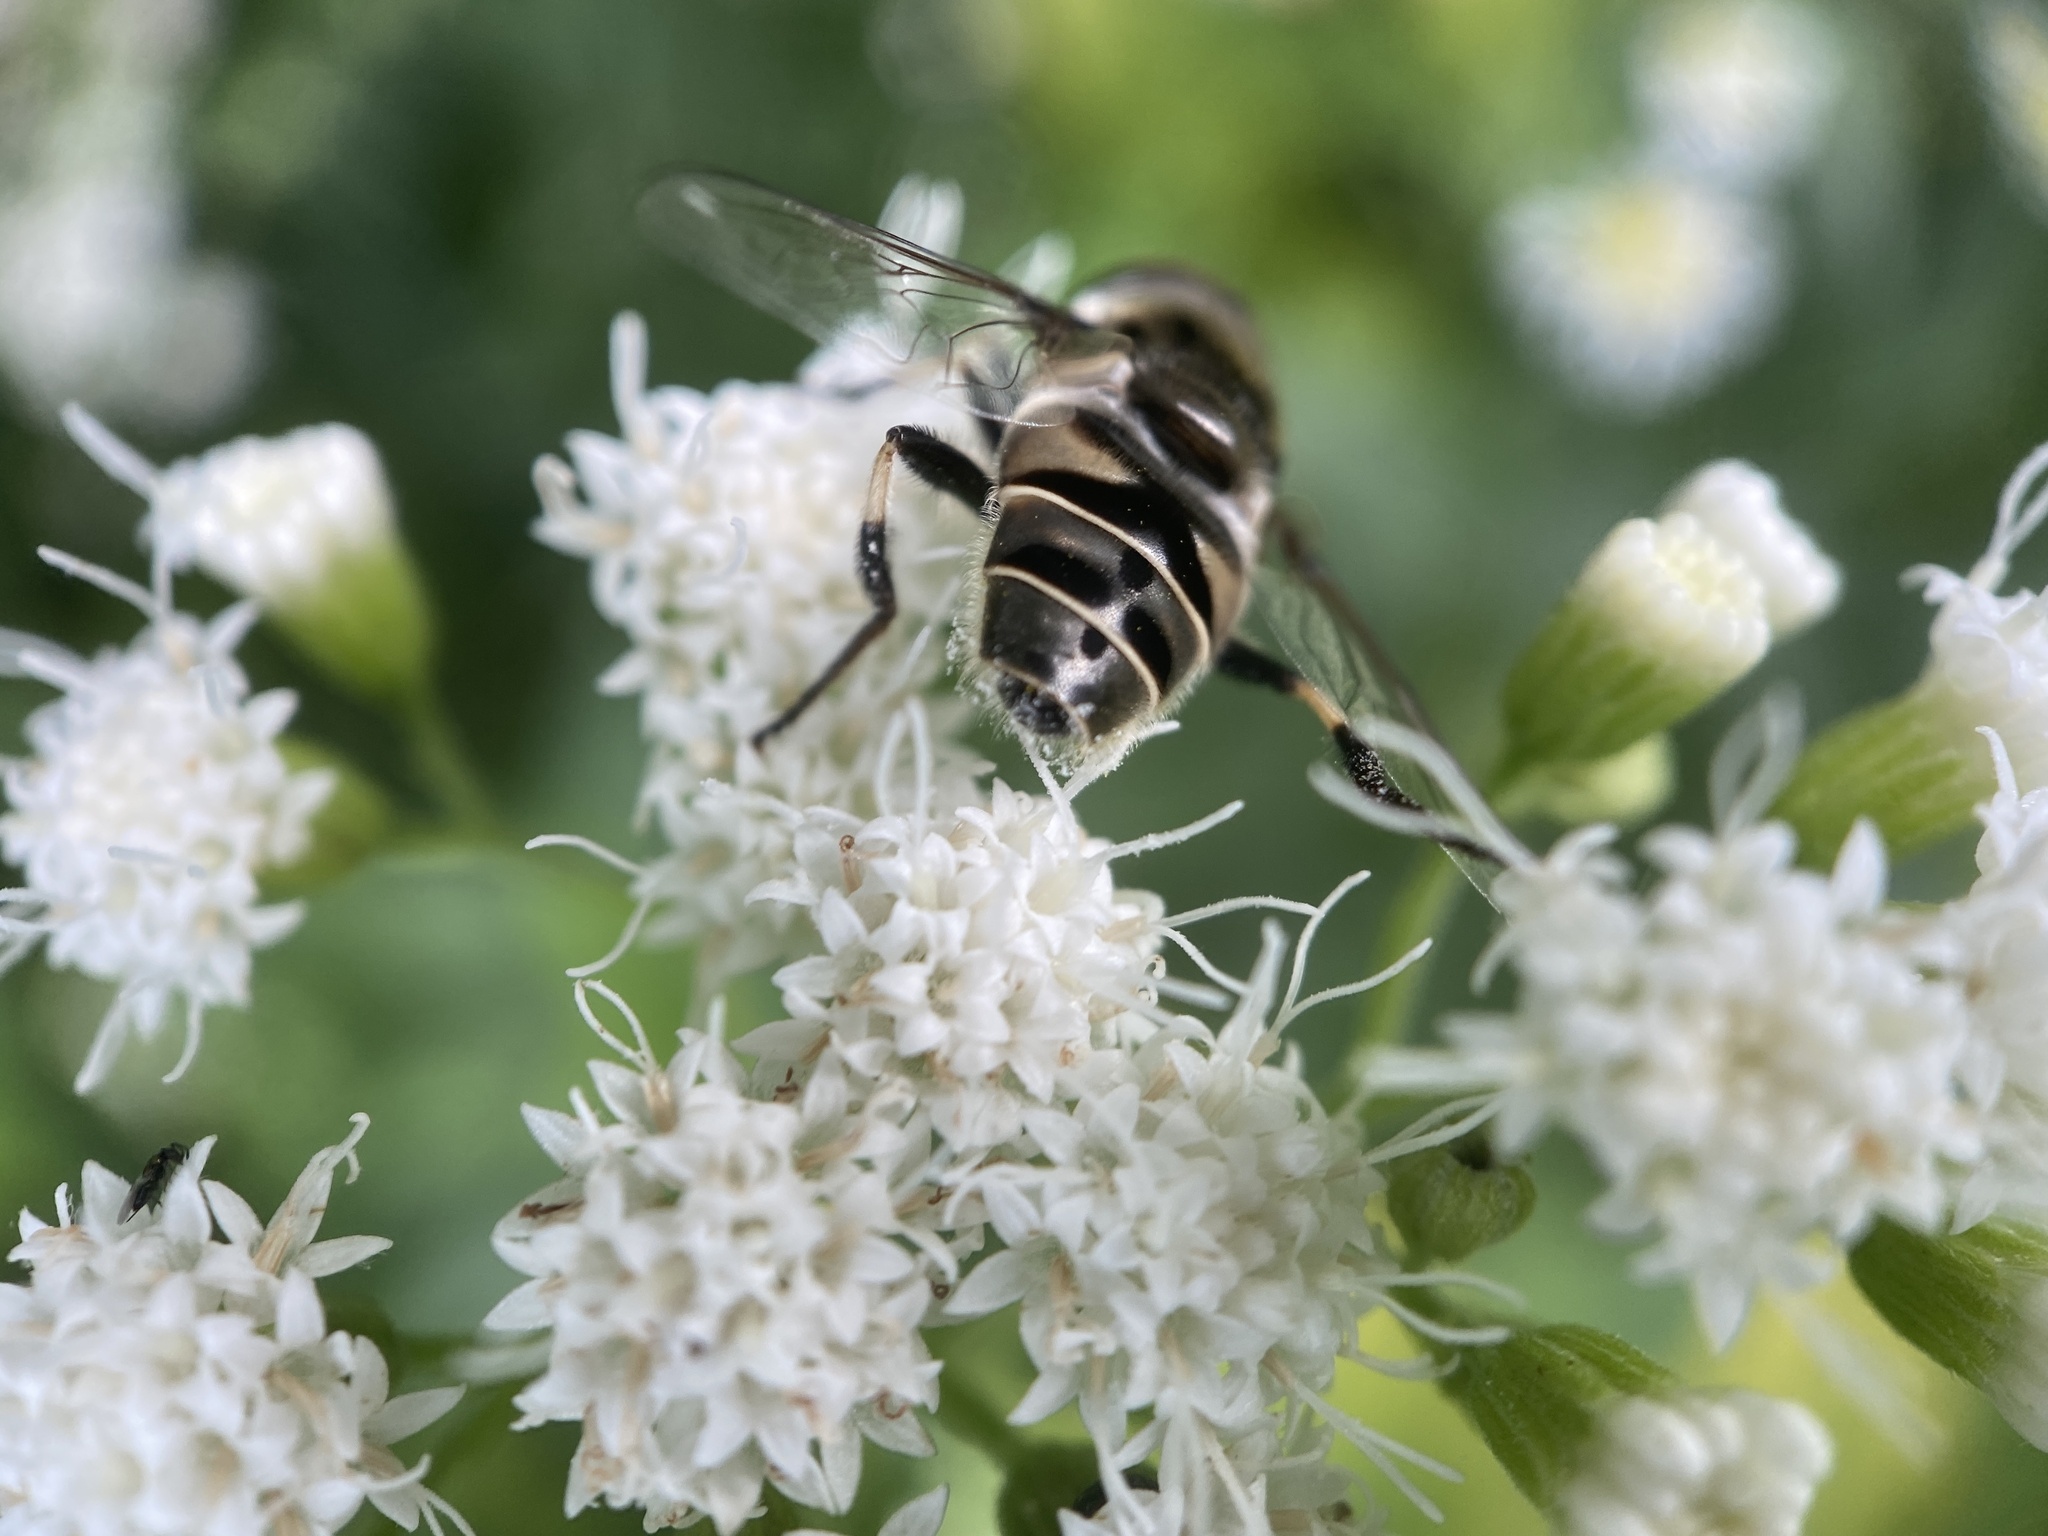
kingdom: Animalia
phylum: Arthropoda
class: Insecta
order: Diptera
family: Syrphidae
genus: Eristalis
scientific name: Eristalis dimidiata
